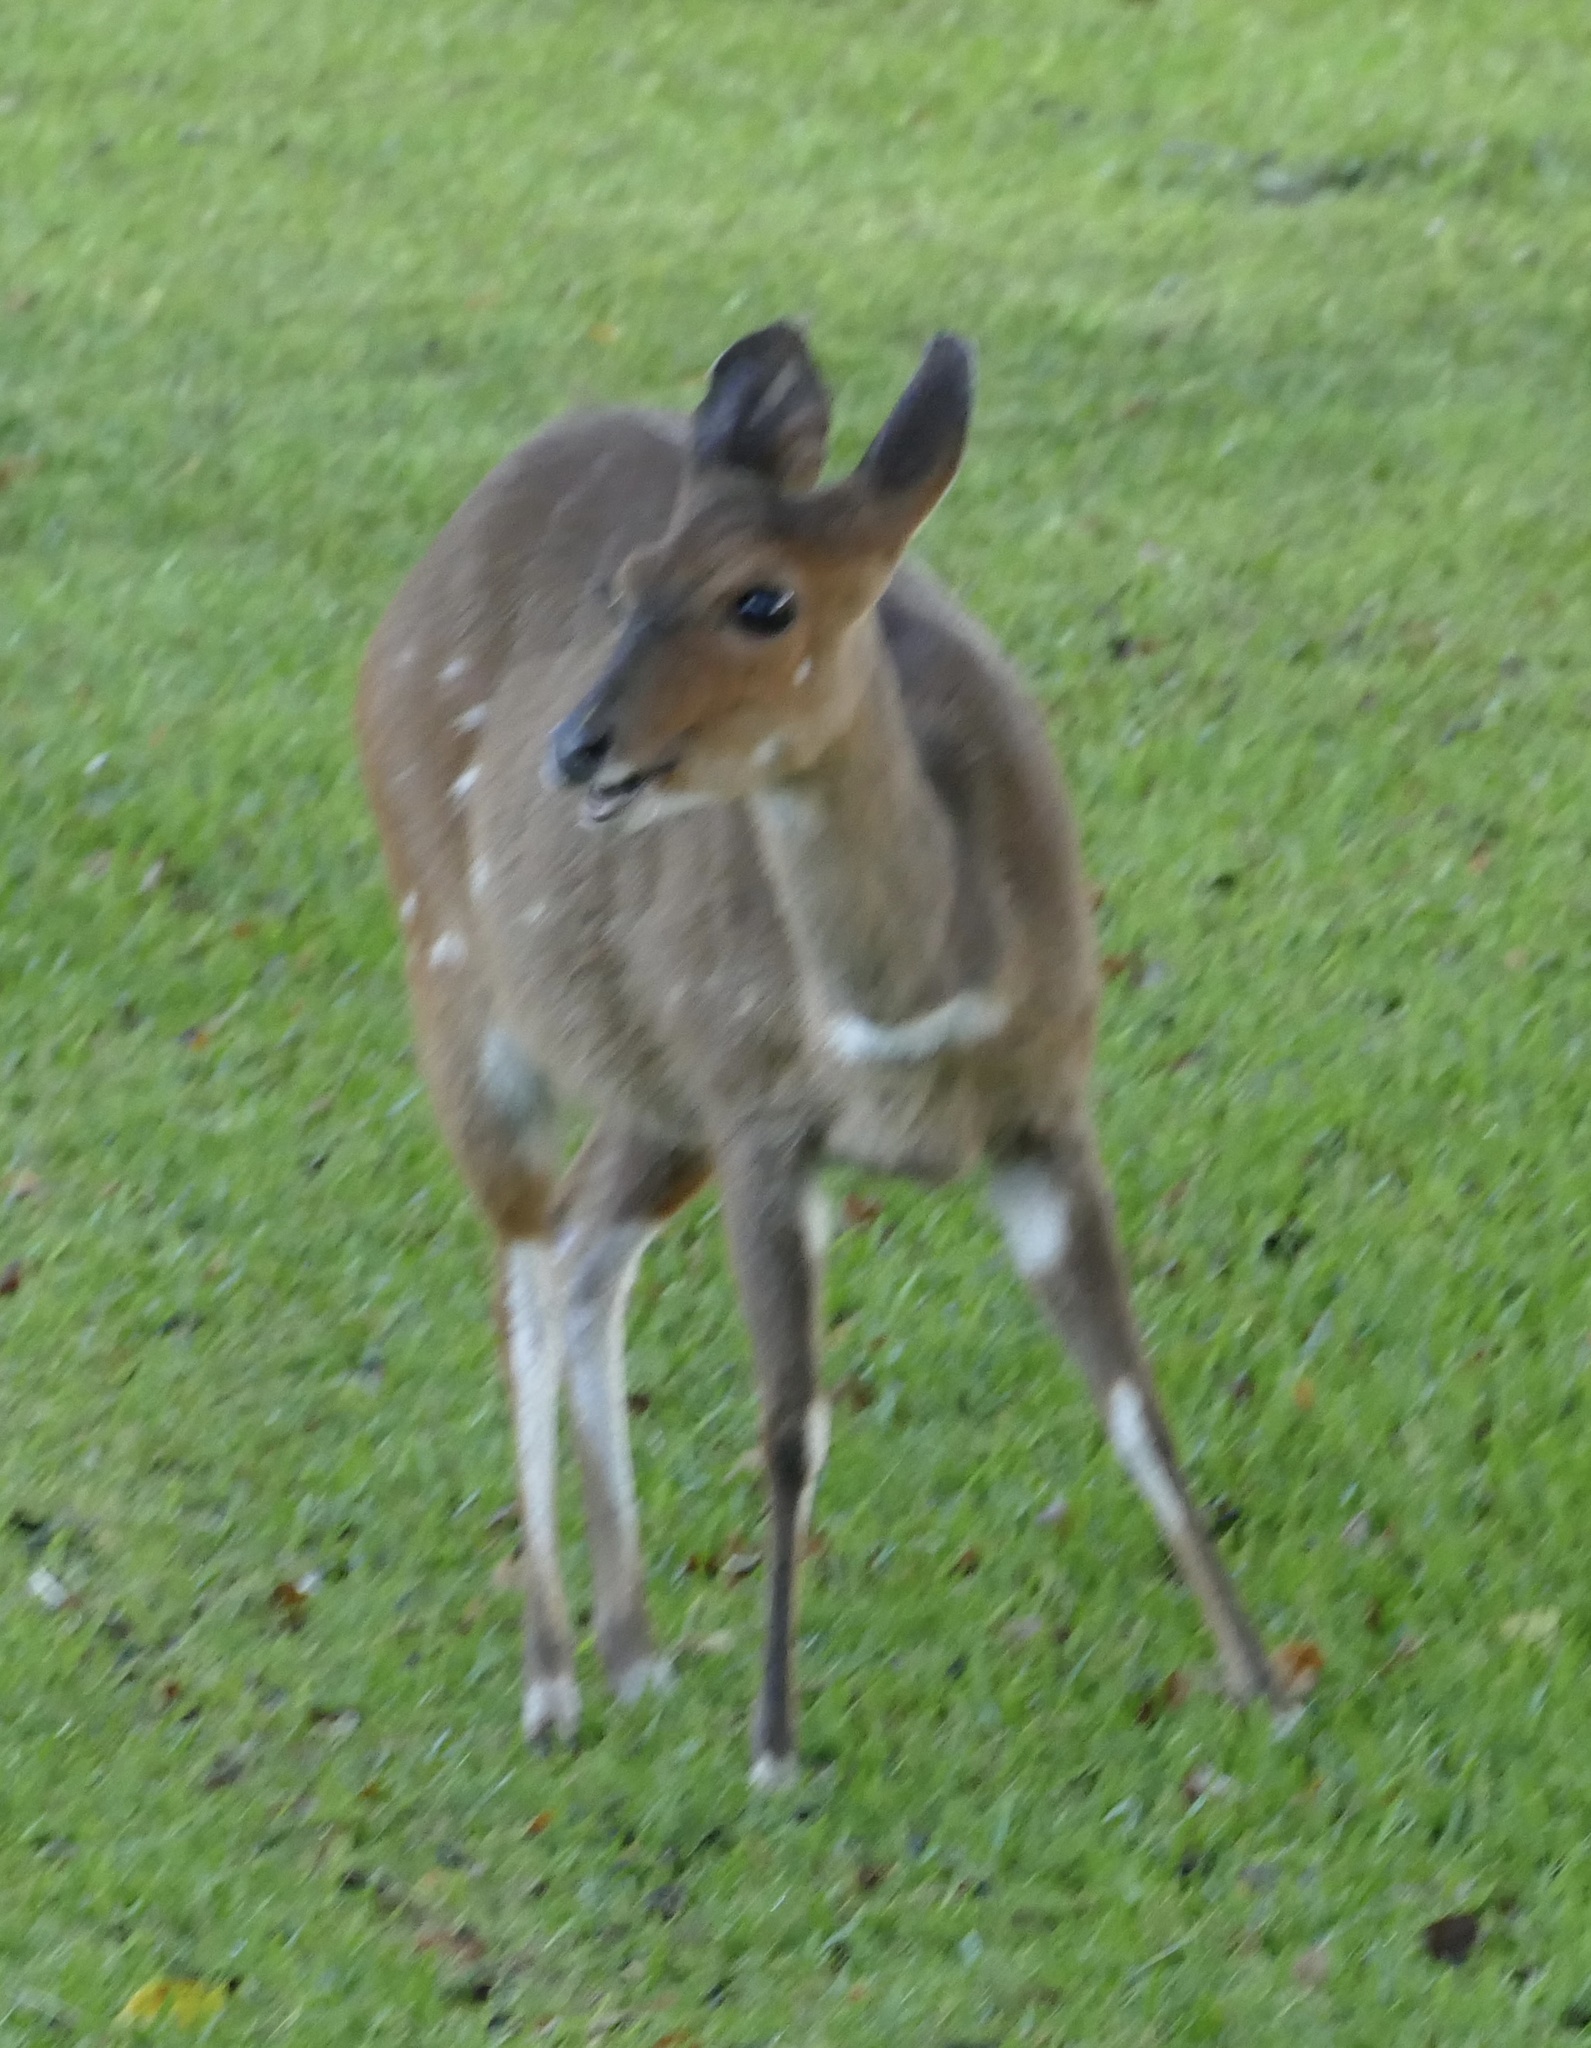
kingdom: Animalia
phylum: Chordata
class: Mammalia
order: Artiodactyla
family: Bovidae
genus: Tragelaphus
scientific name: Tragelaphus scriptus
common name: Bushbuck
